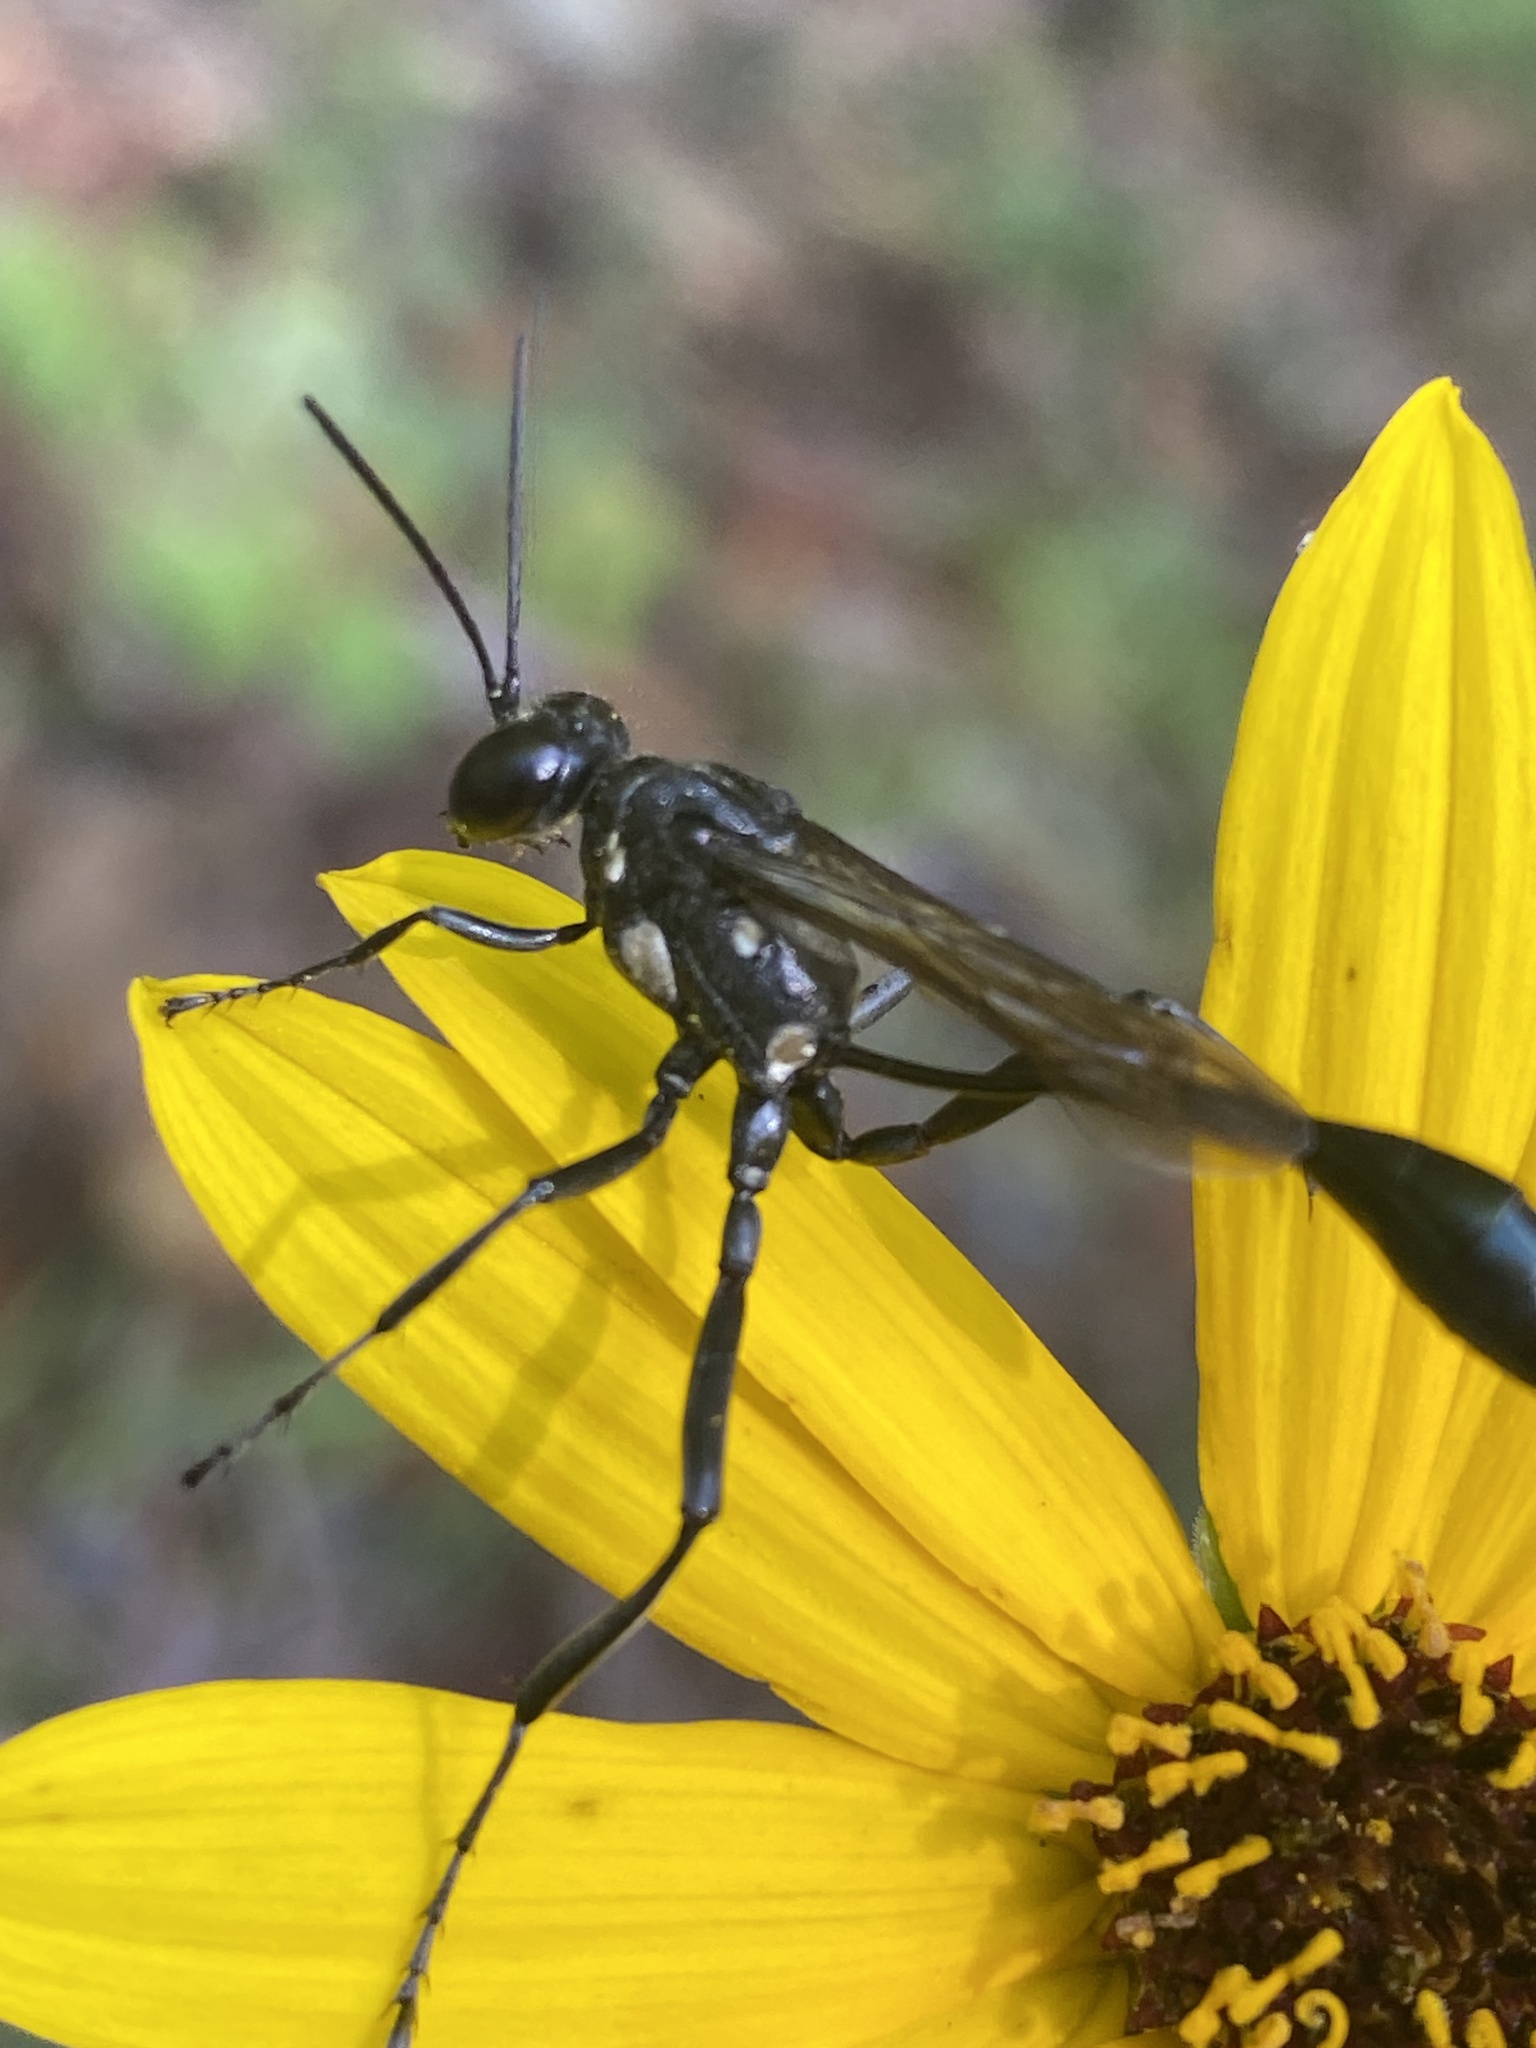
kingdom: Animalia
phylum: Arthropoda
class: Insecta
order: Hymenoptera
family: Sphecidae
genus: Eremnophila
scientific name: Eremnophila aureonotata
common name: Gold-marked thread-waisted wasp
